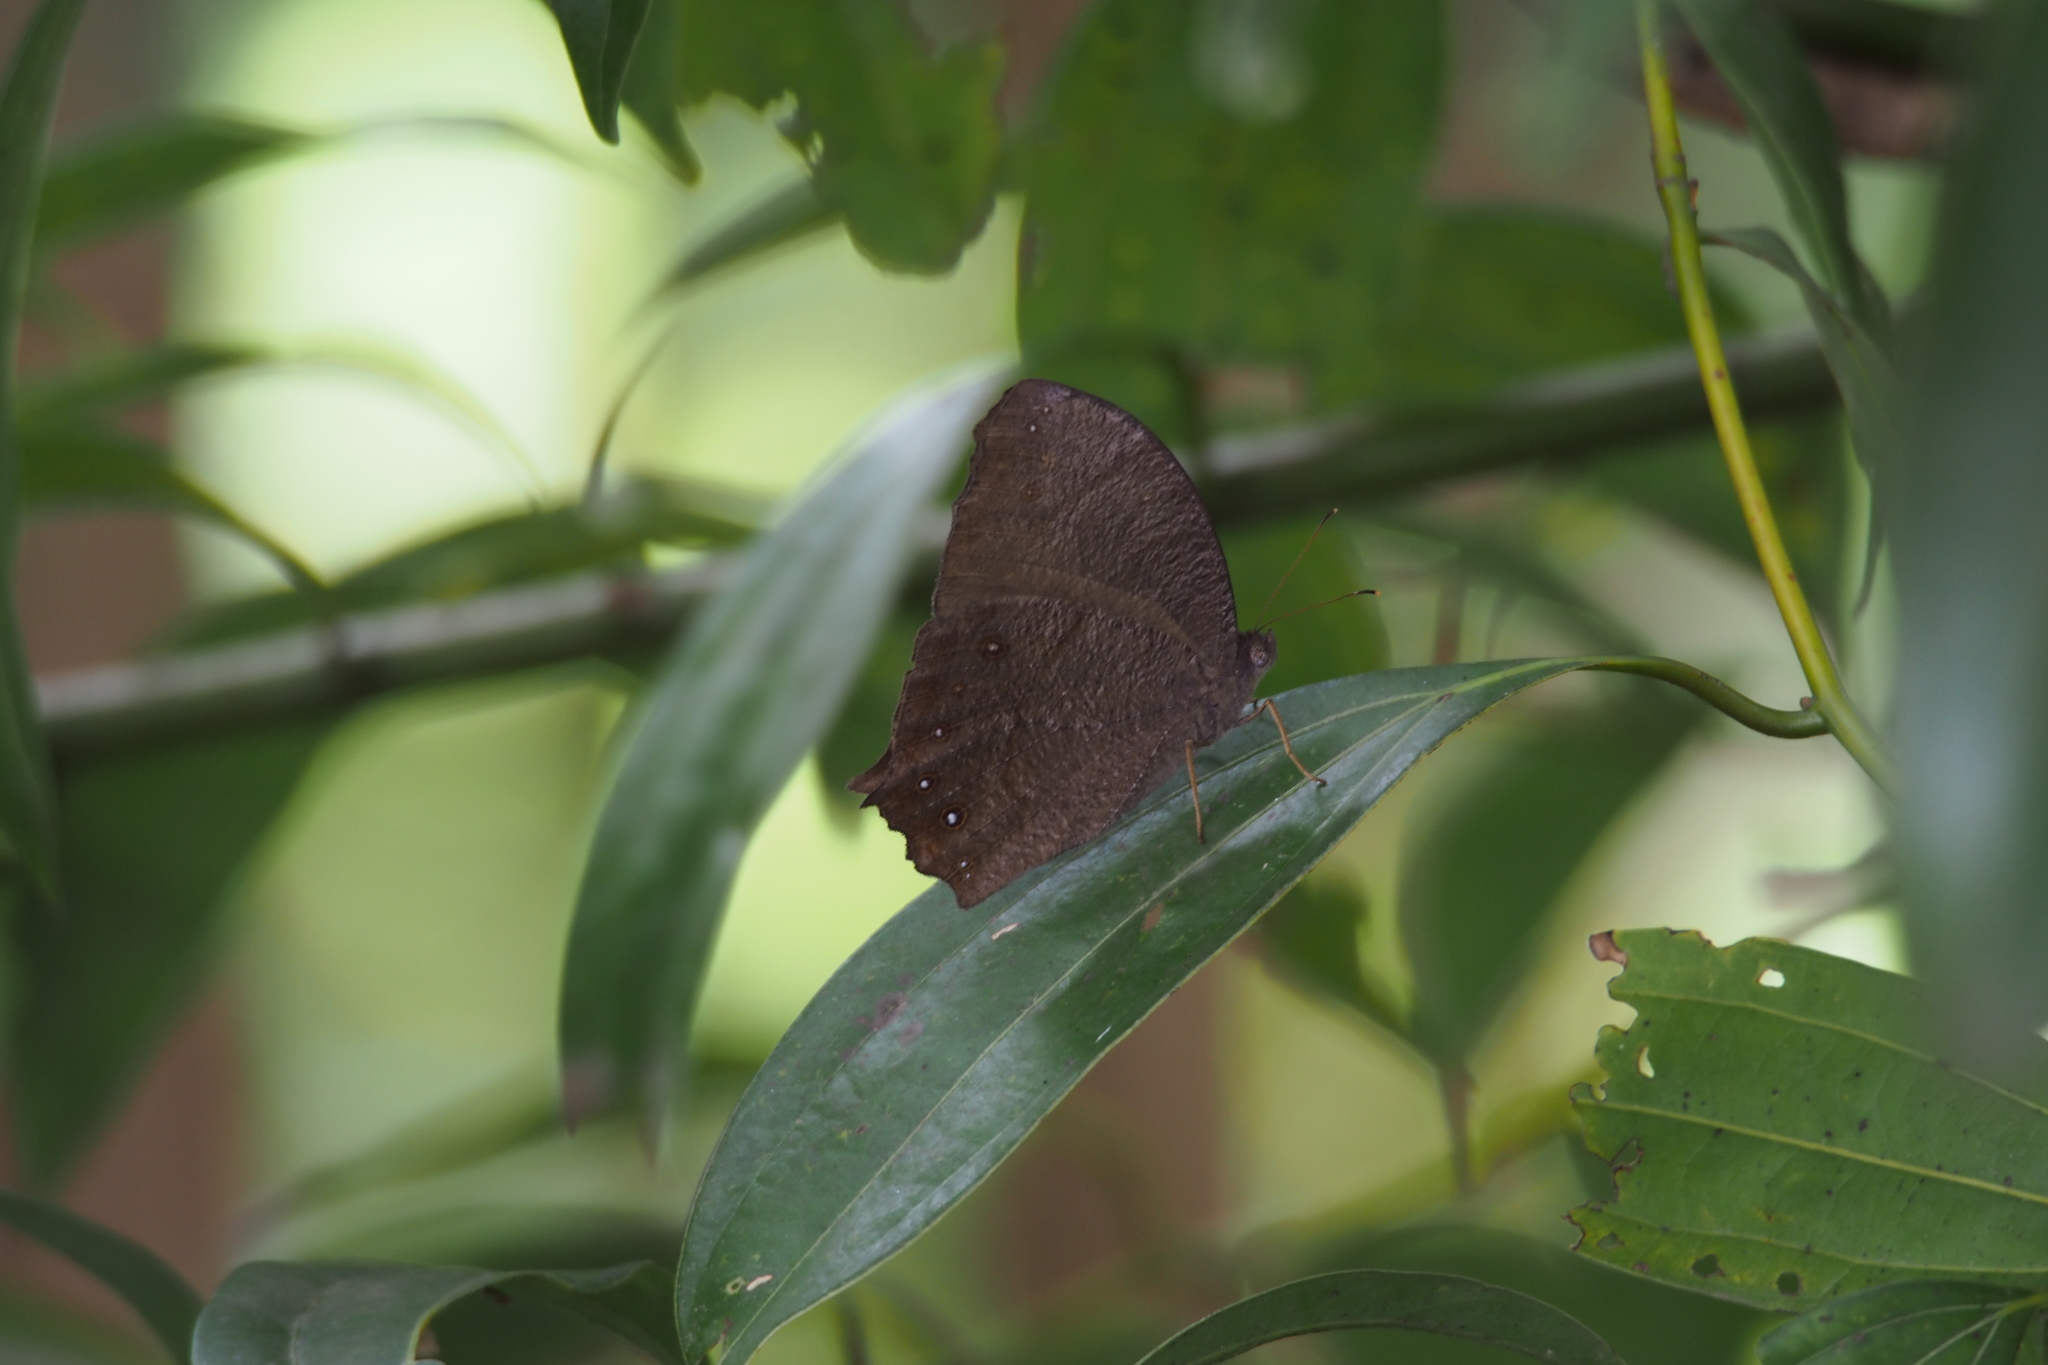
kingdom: Animalia
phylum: Arthropoda
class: Insecta
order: Lepidoptera
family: Nymphalidae
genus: Melanitis
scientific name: Melanitis phedima
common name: Dark evening brown
